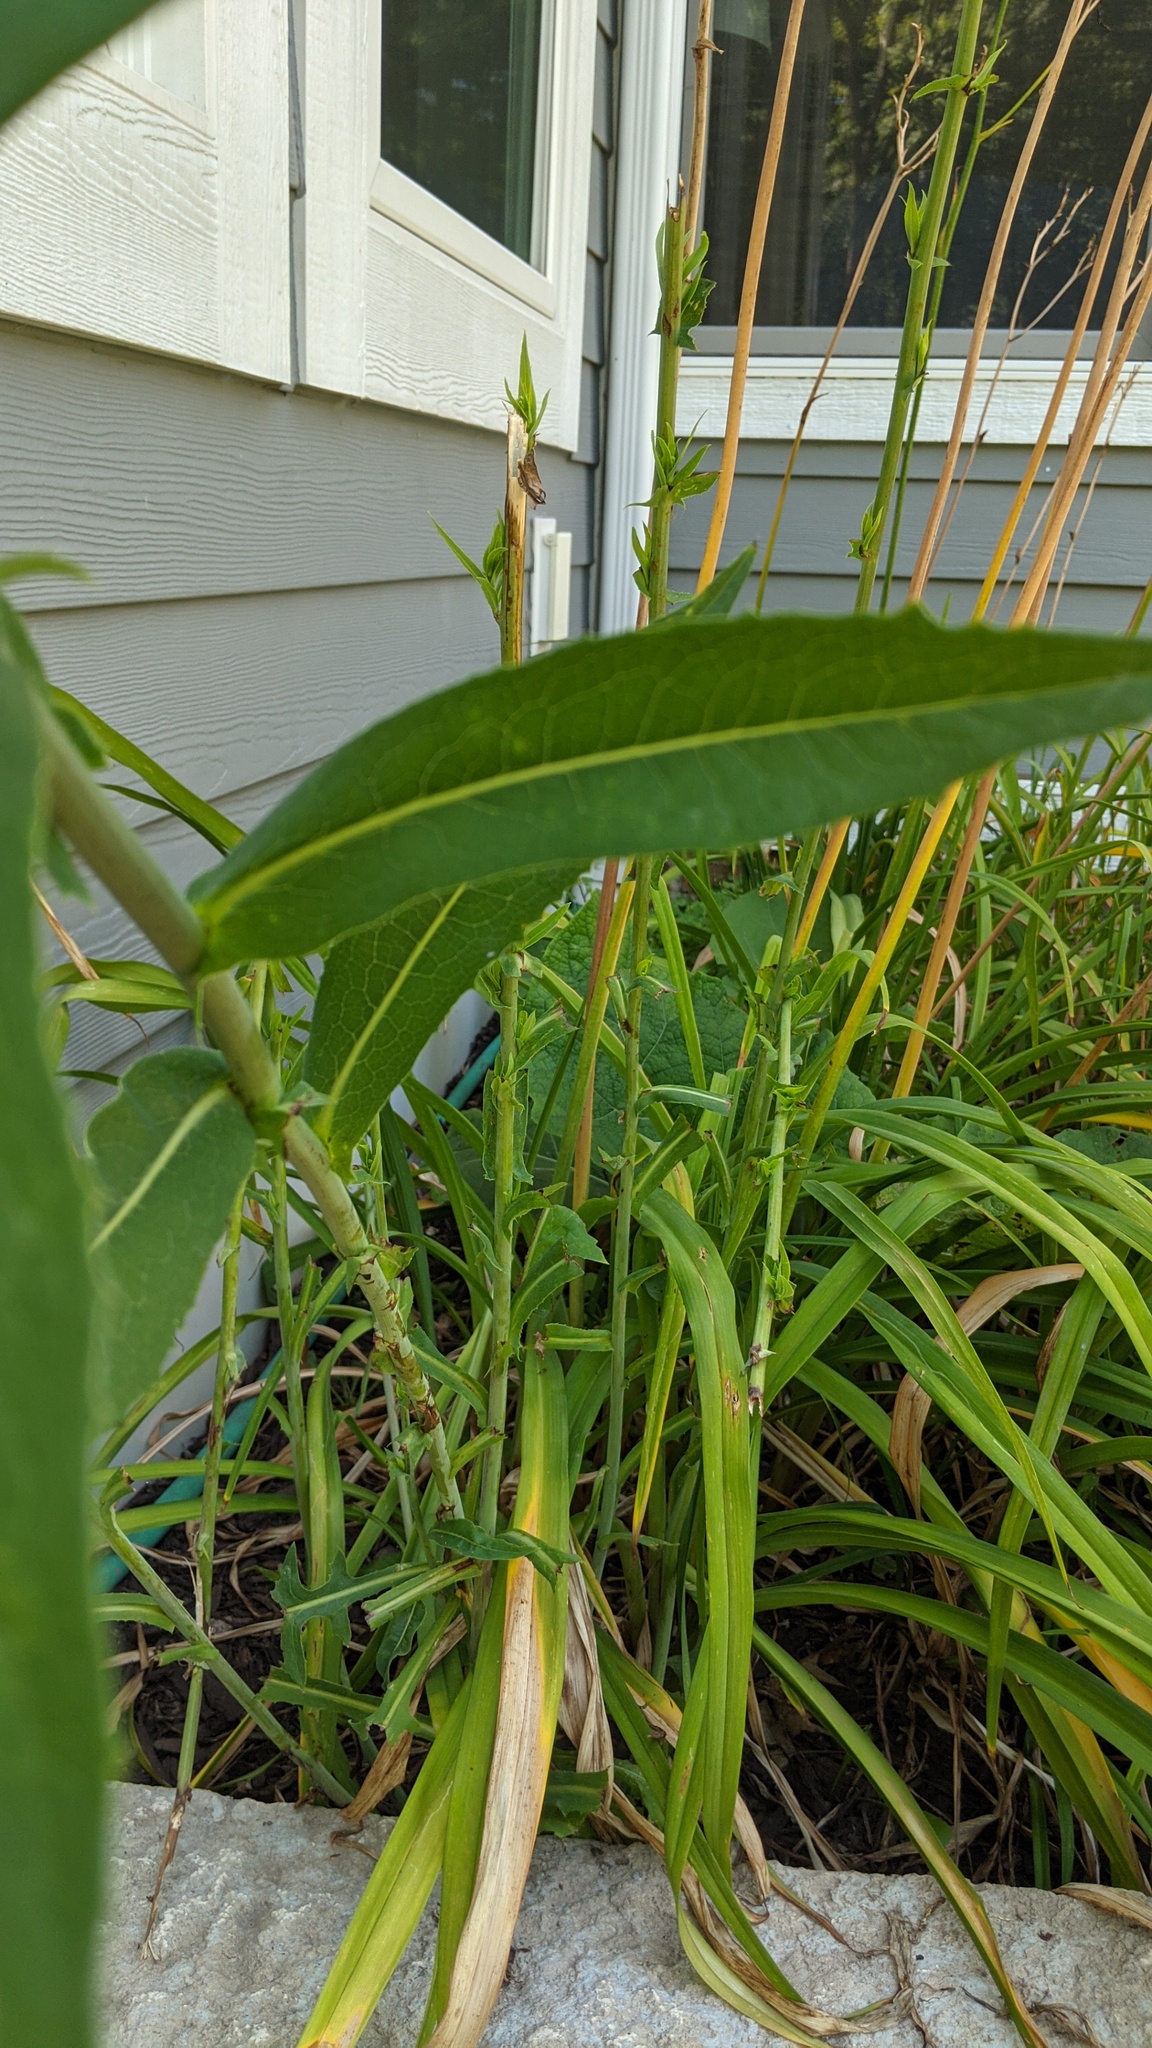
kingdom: Plantae
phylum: Tracheophyta
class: Magnoliopsida
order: Asterales
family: Asteraceae
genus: Lactuca
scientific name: Lactuca canadensis
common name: Canada lettuce
